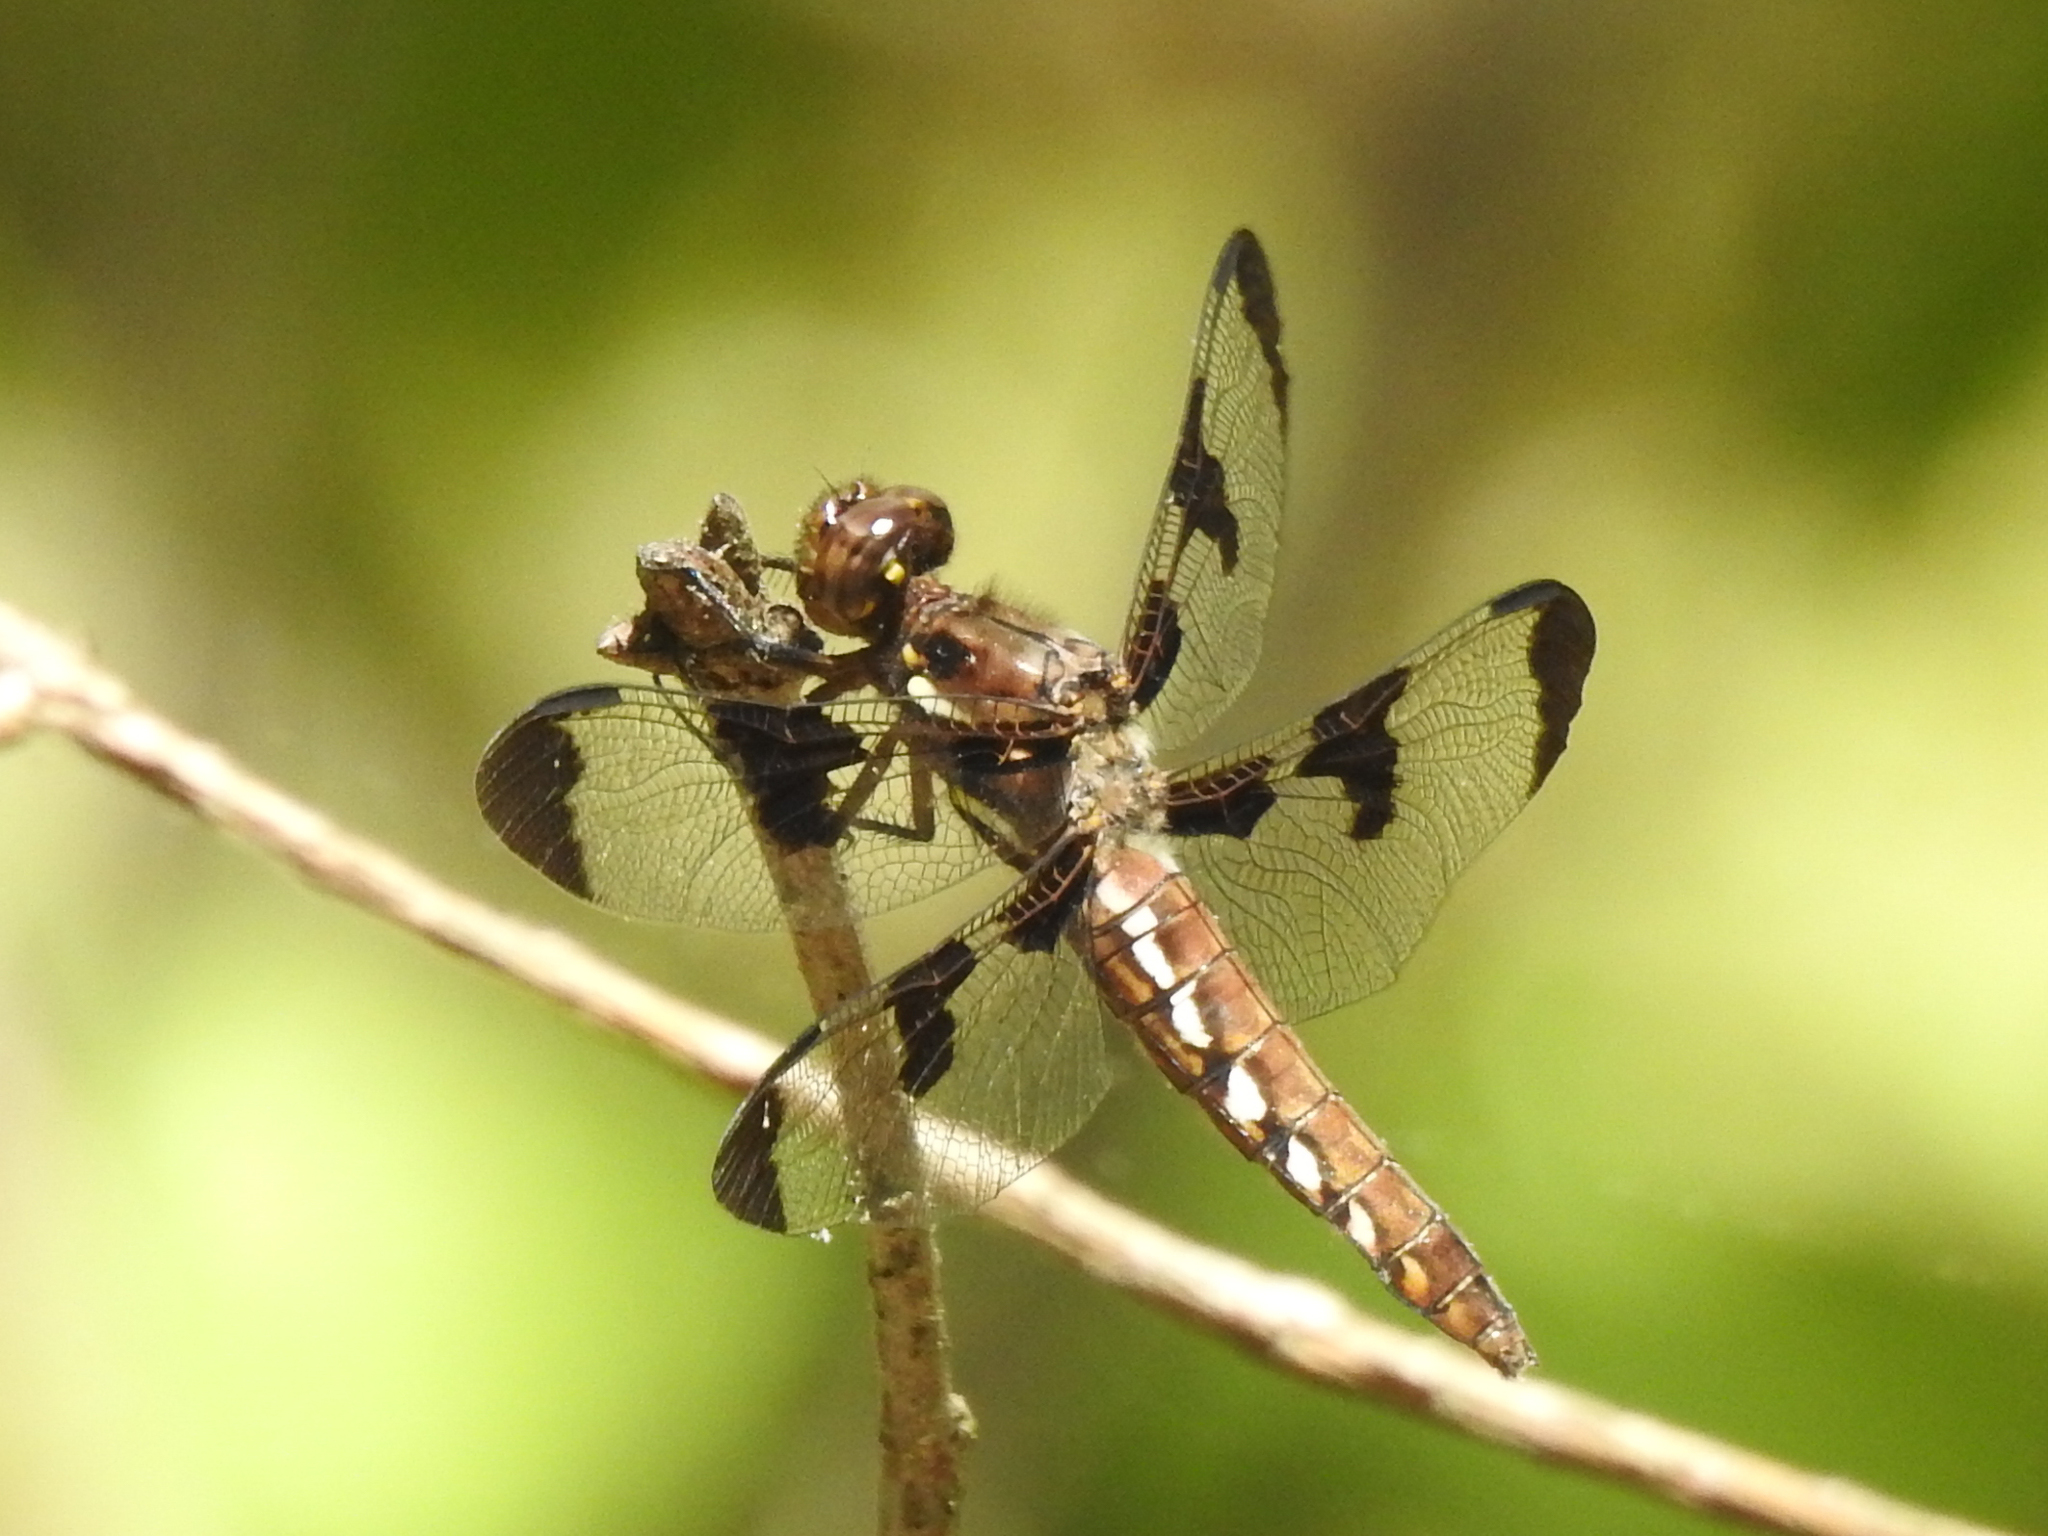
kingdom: Animalia
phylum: Arthropoda
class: Insecta
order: Odonata
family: Libellulidae
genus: Plathemis
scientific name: Plathemis lydia
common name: Common whitetail
